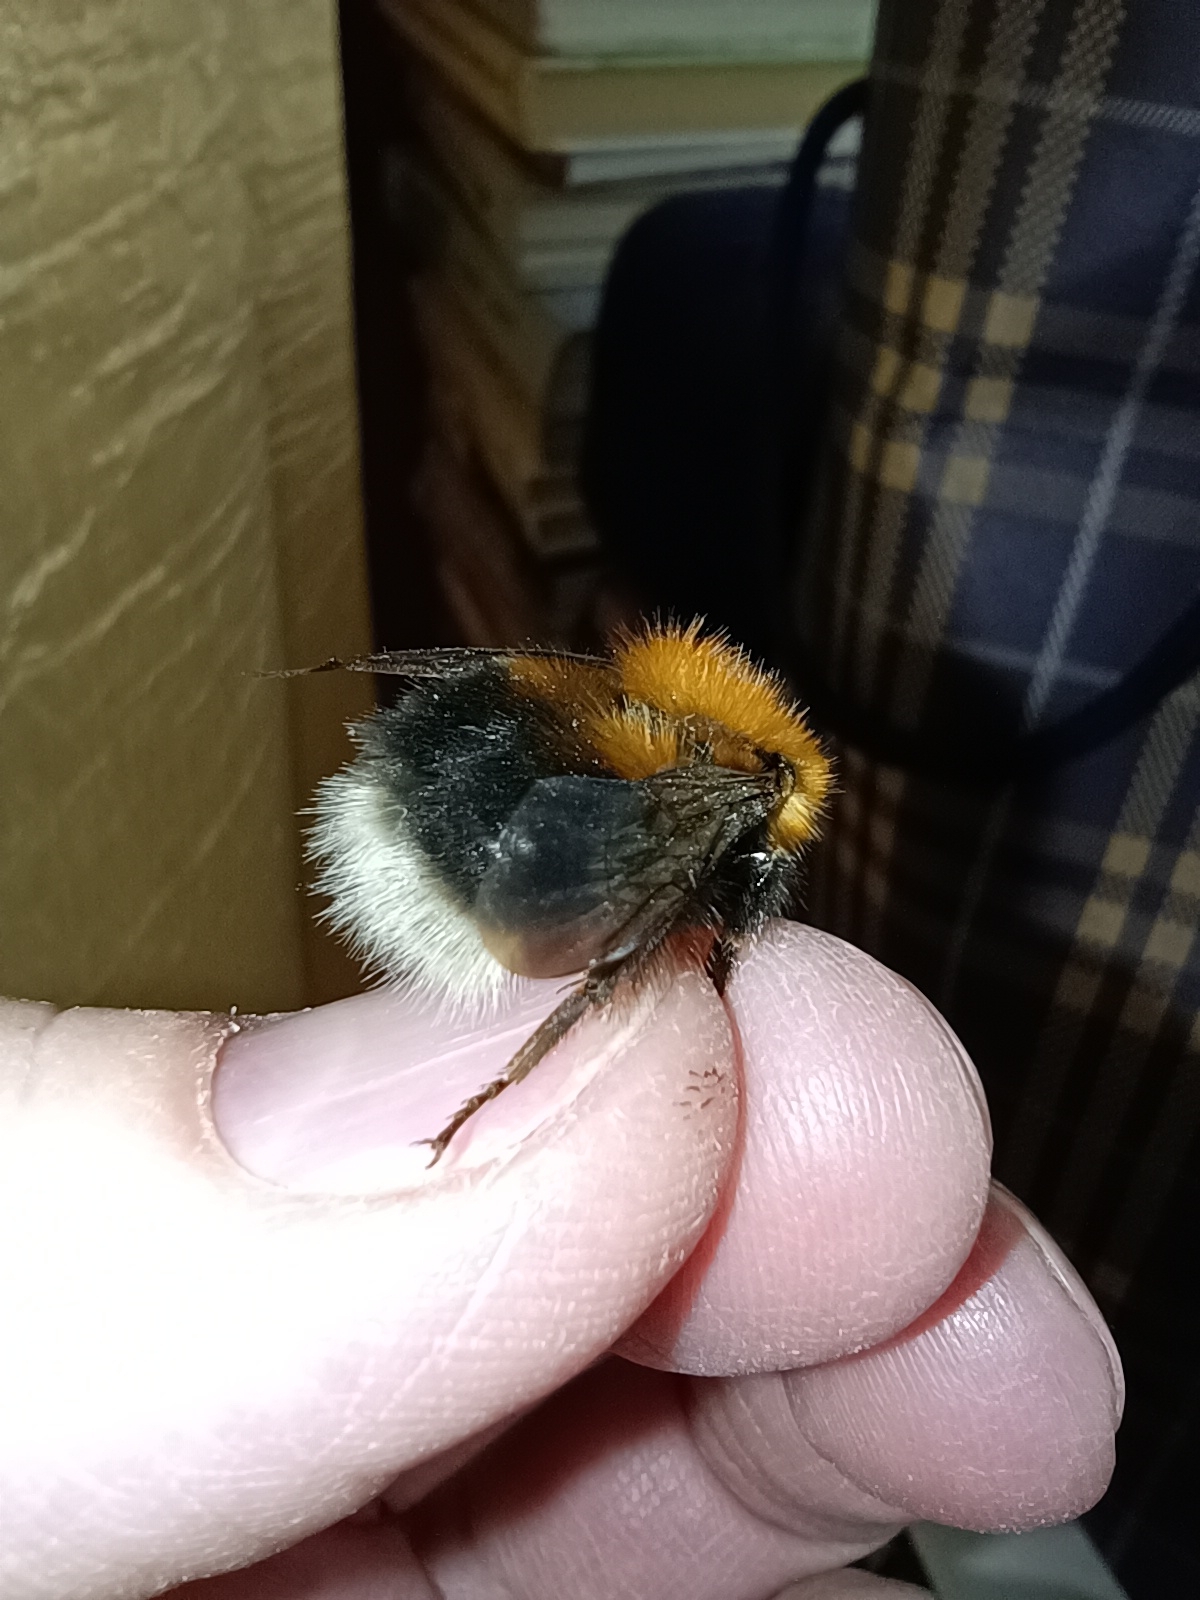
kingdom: Animalia
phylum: Arthropoda
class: Insecta
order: Hymenoptera
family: Apidae
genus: Bombus
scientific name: Bombus hypnorum
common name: New garden bumblebee
